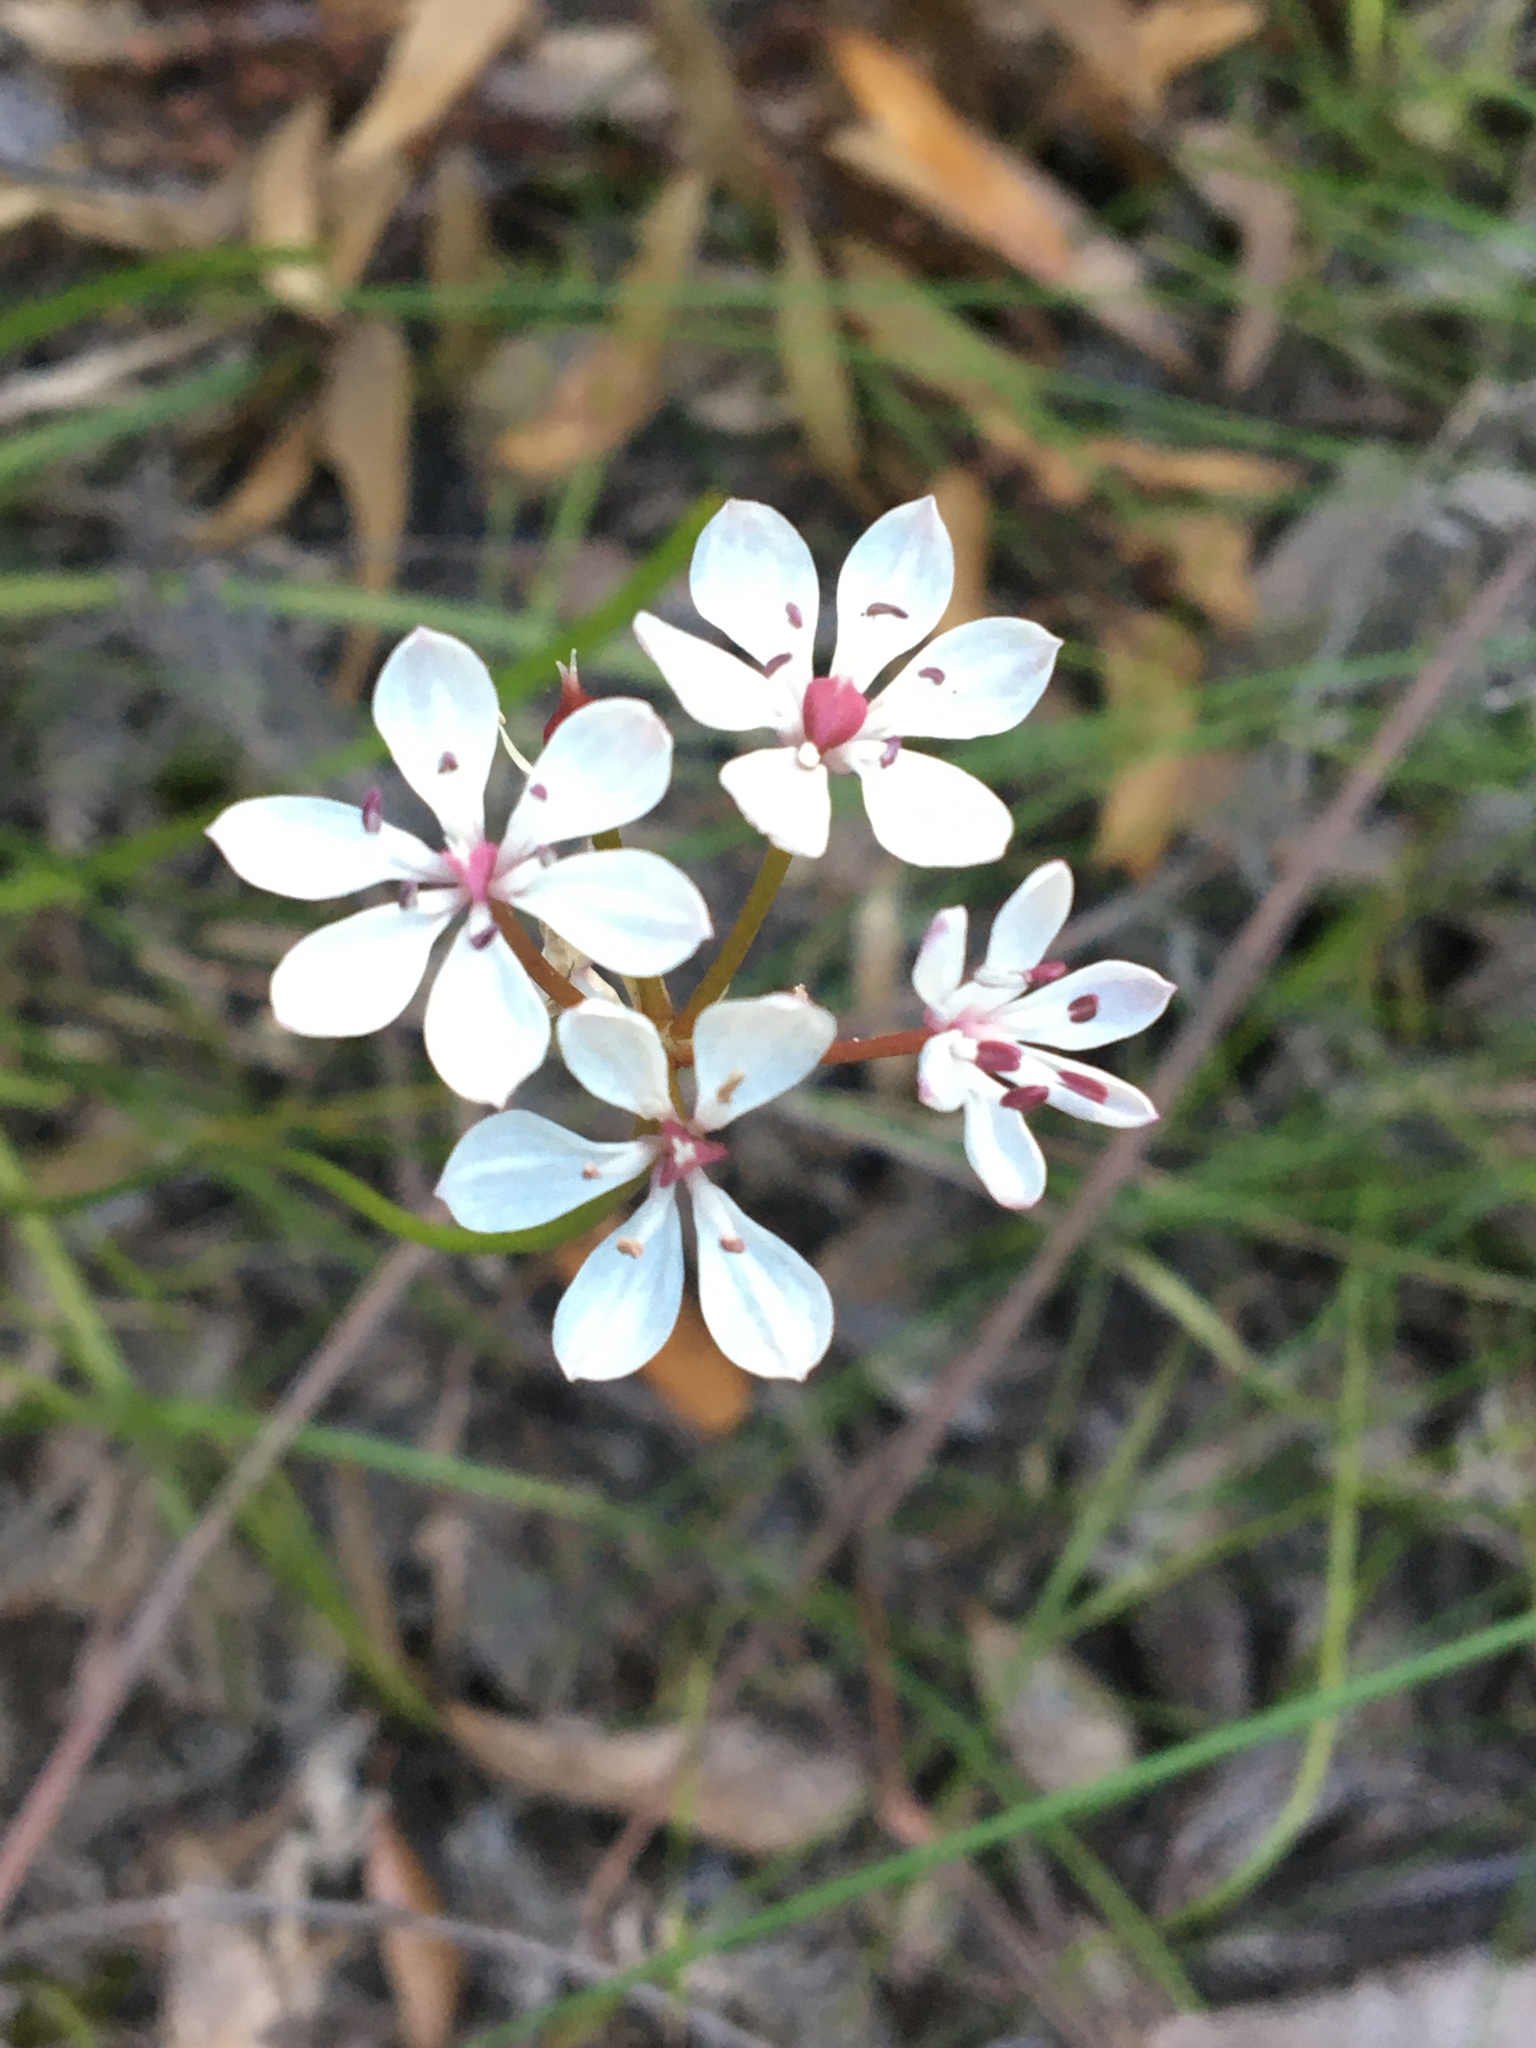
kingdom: Plantae
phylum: Tracheophyta
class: Liliopsida
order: Liliales
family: Colchicaceae
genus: Burchardia
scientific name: Burchardia umbellata
